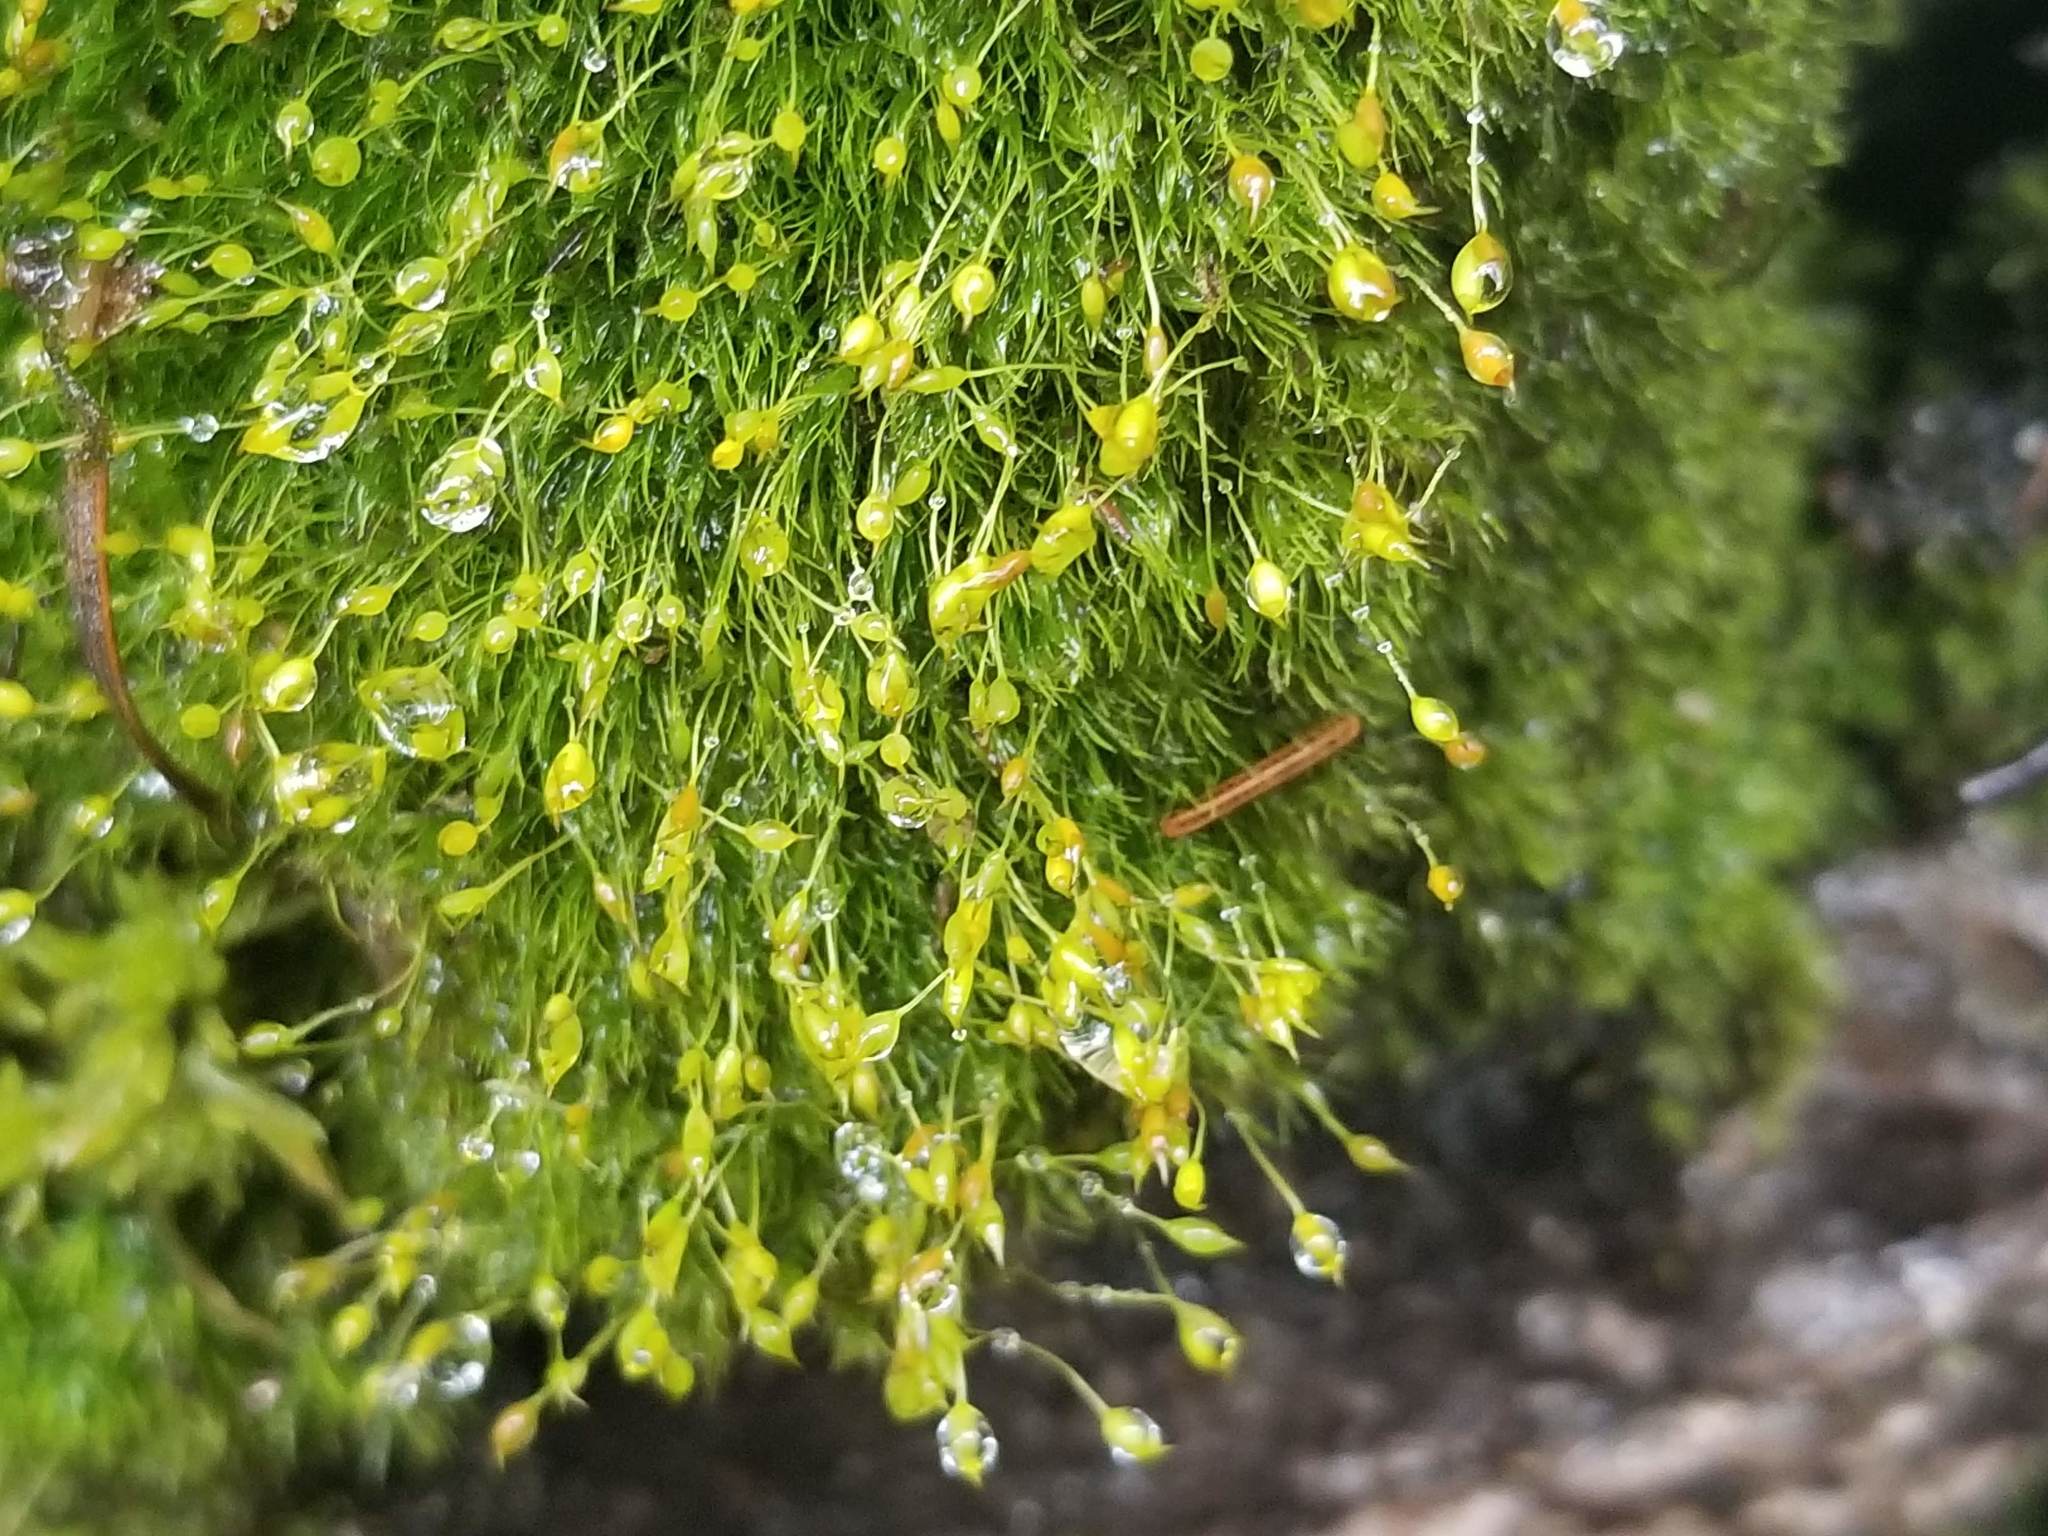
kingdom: Plantae
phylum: Bryophyta
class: Bryopsida
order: Bartramiales
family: Bartramiaceae
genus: Bartramia
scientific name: Bartramia ithyphylla
